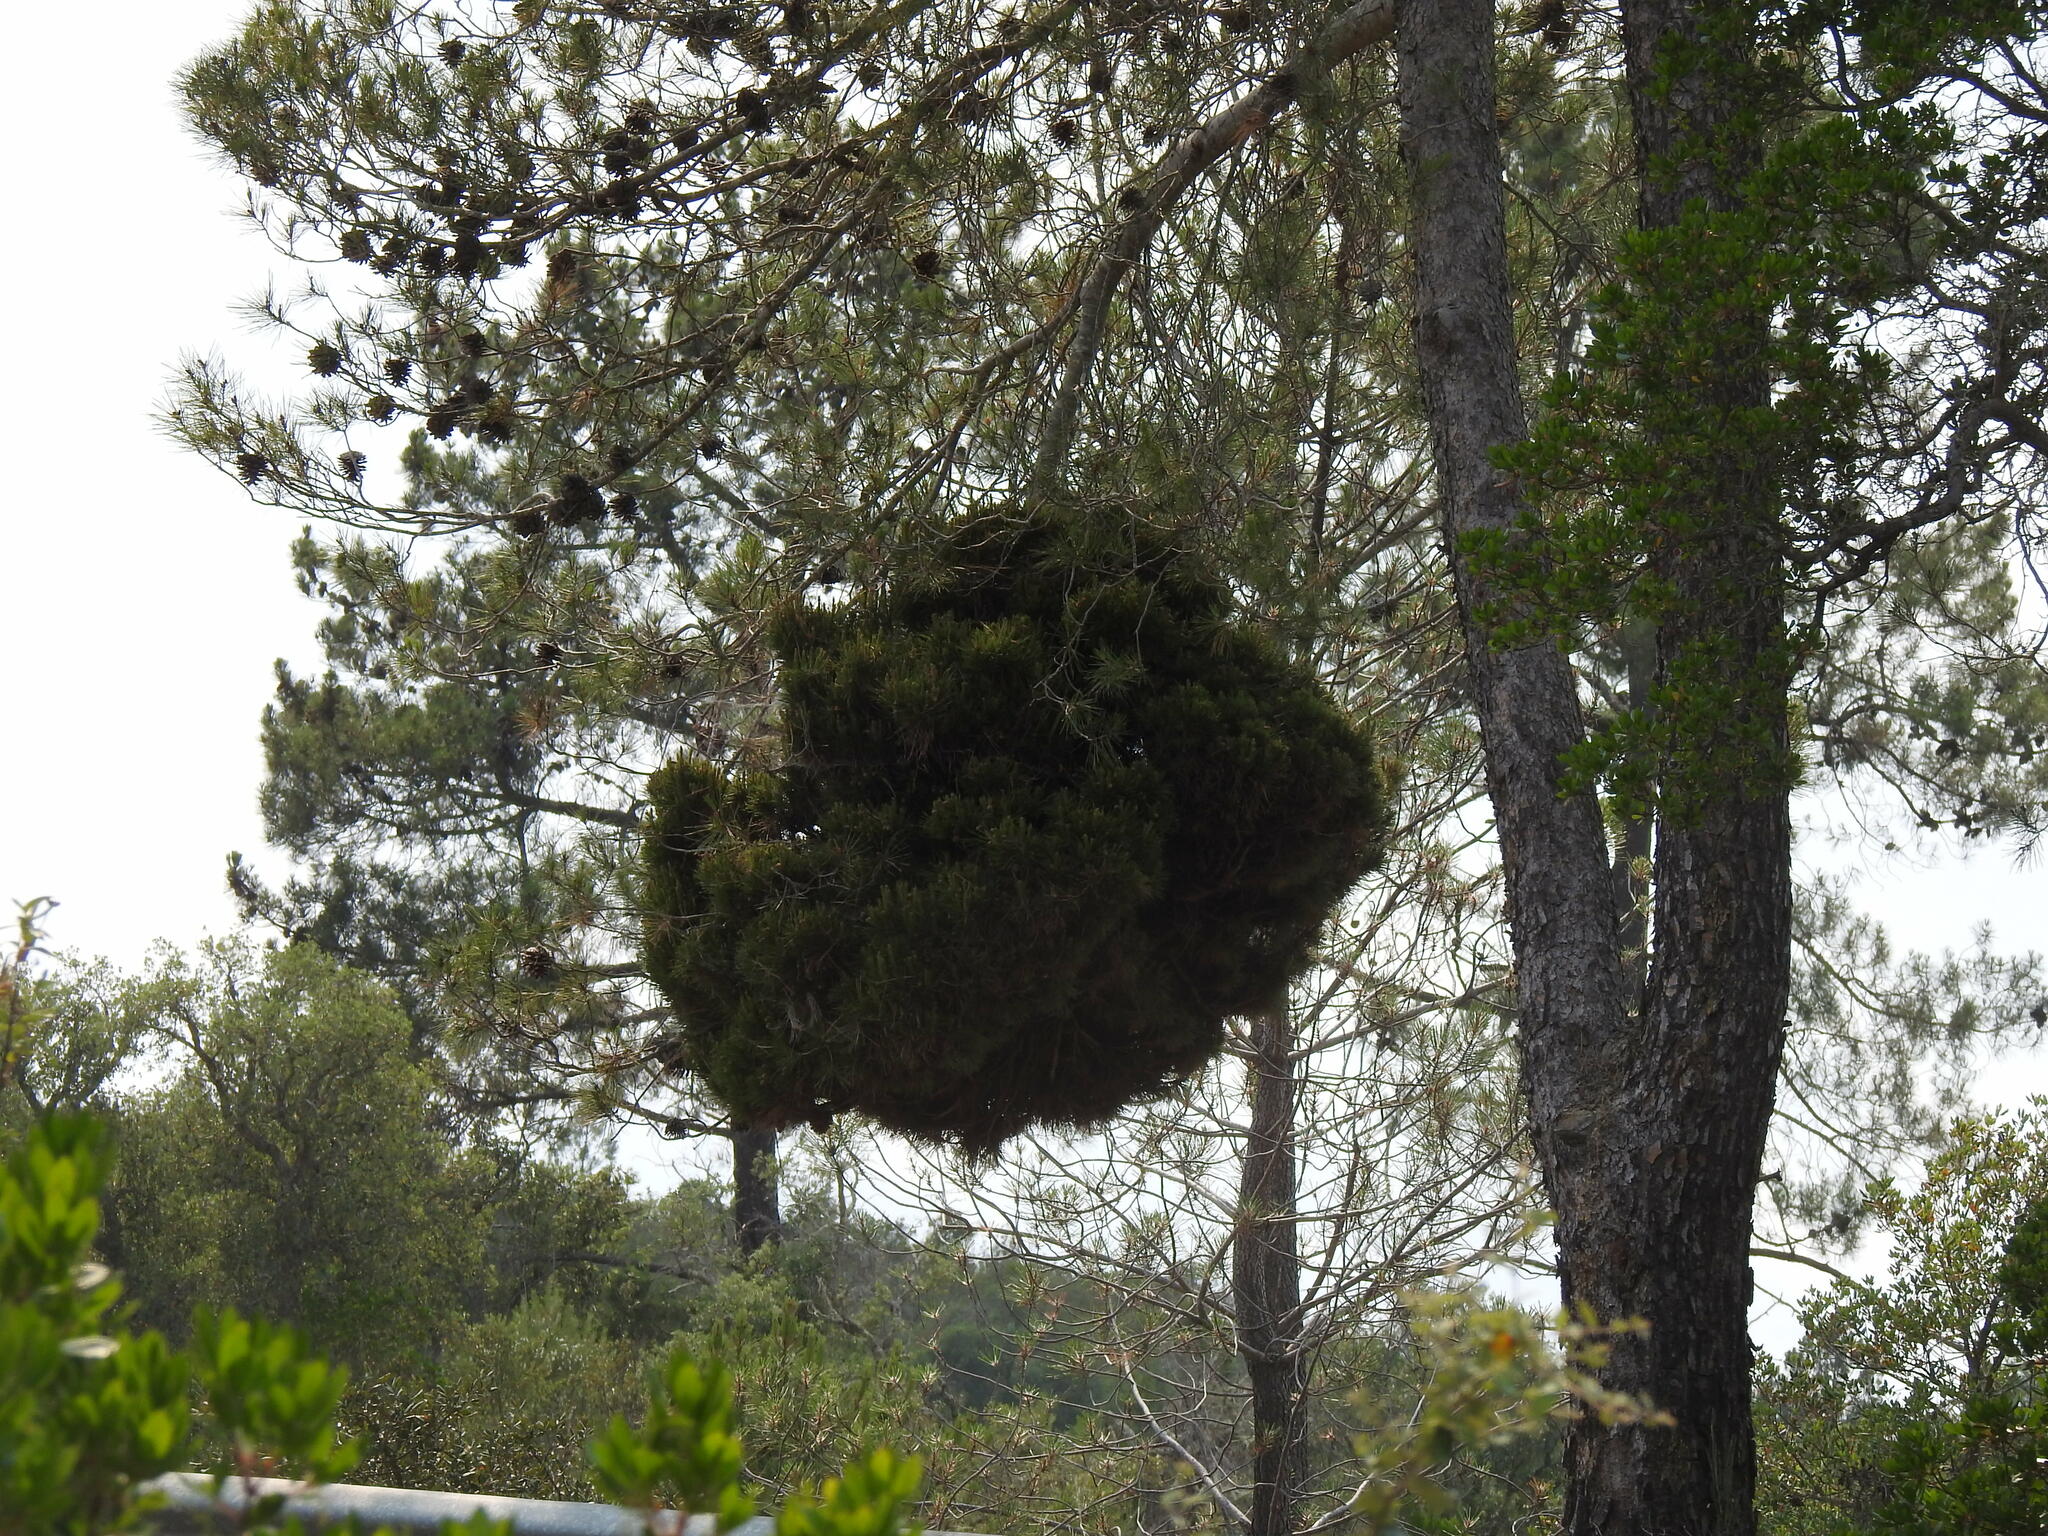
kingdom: Bacteria
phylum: Firmicutes
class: Bacilli
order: Acholeplasmatales
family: Acholeplasmataceae
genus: Phytoplasma
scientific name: Phytoplasma pini
